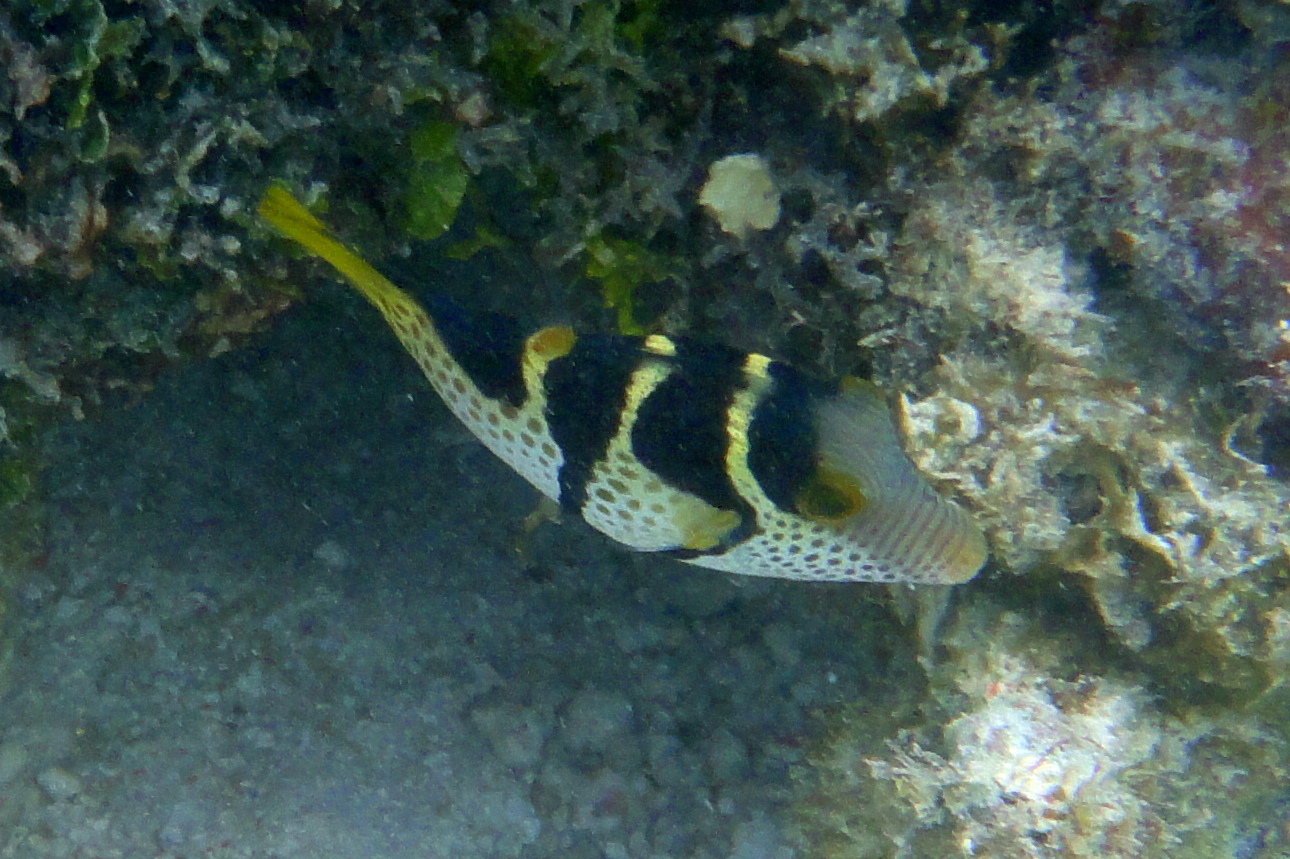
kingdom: Animalia
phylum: Chordata
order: Tetraodontiformes
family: Tetraodontidae
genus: Canthigaster
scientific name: Canthigaster valentini
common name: Banded toby
